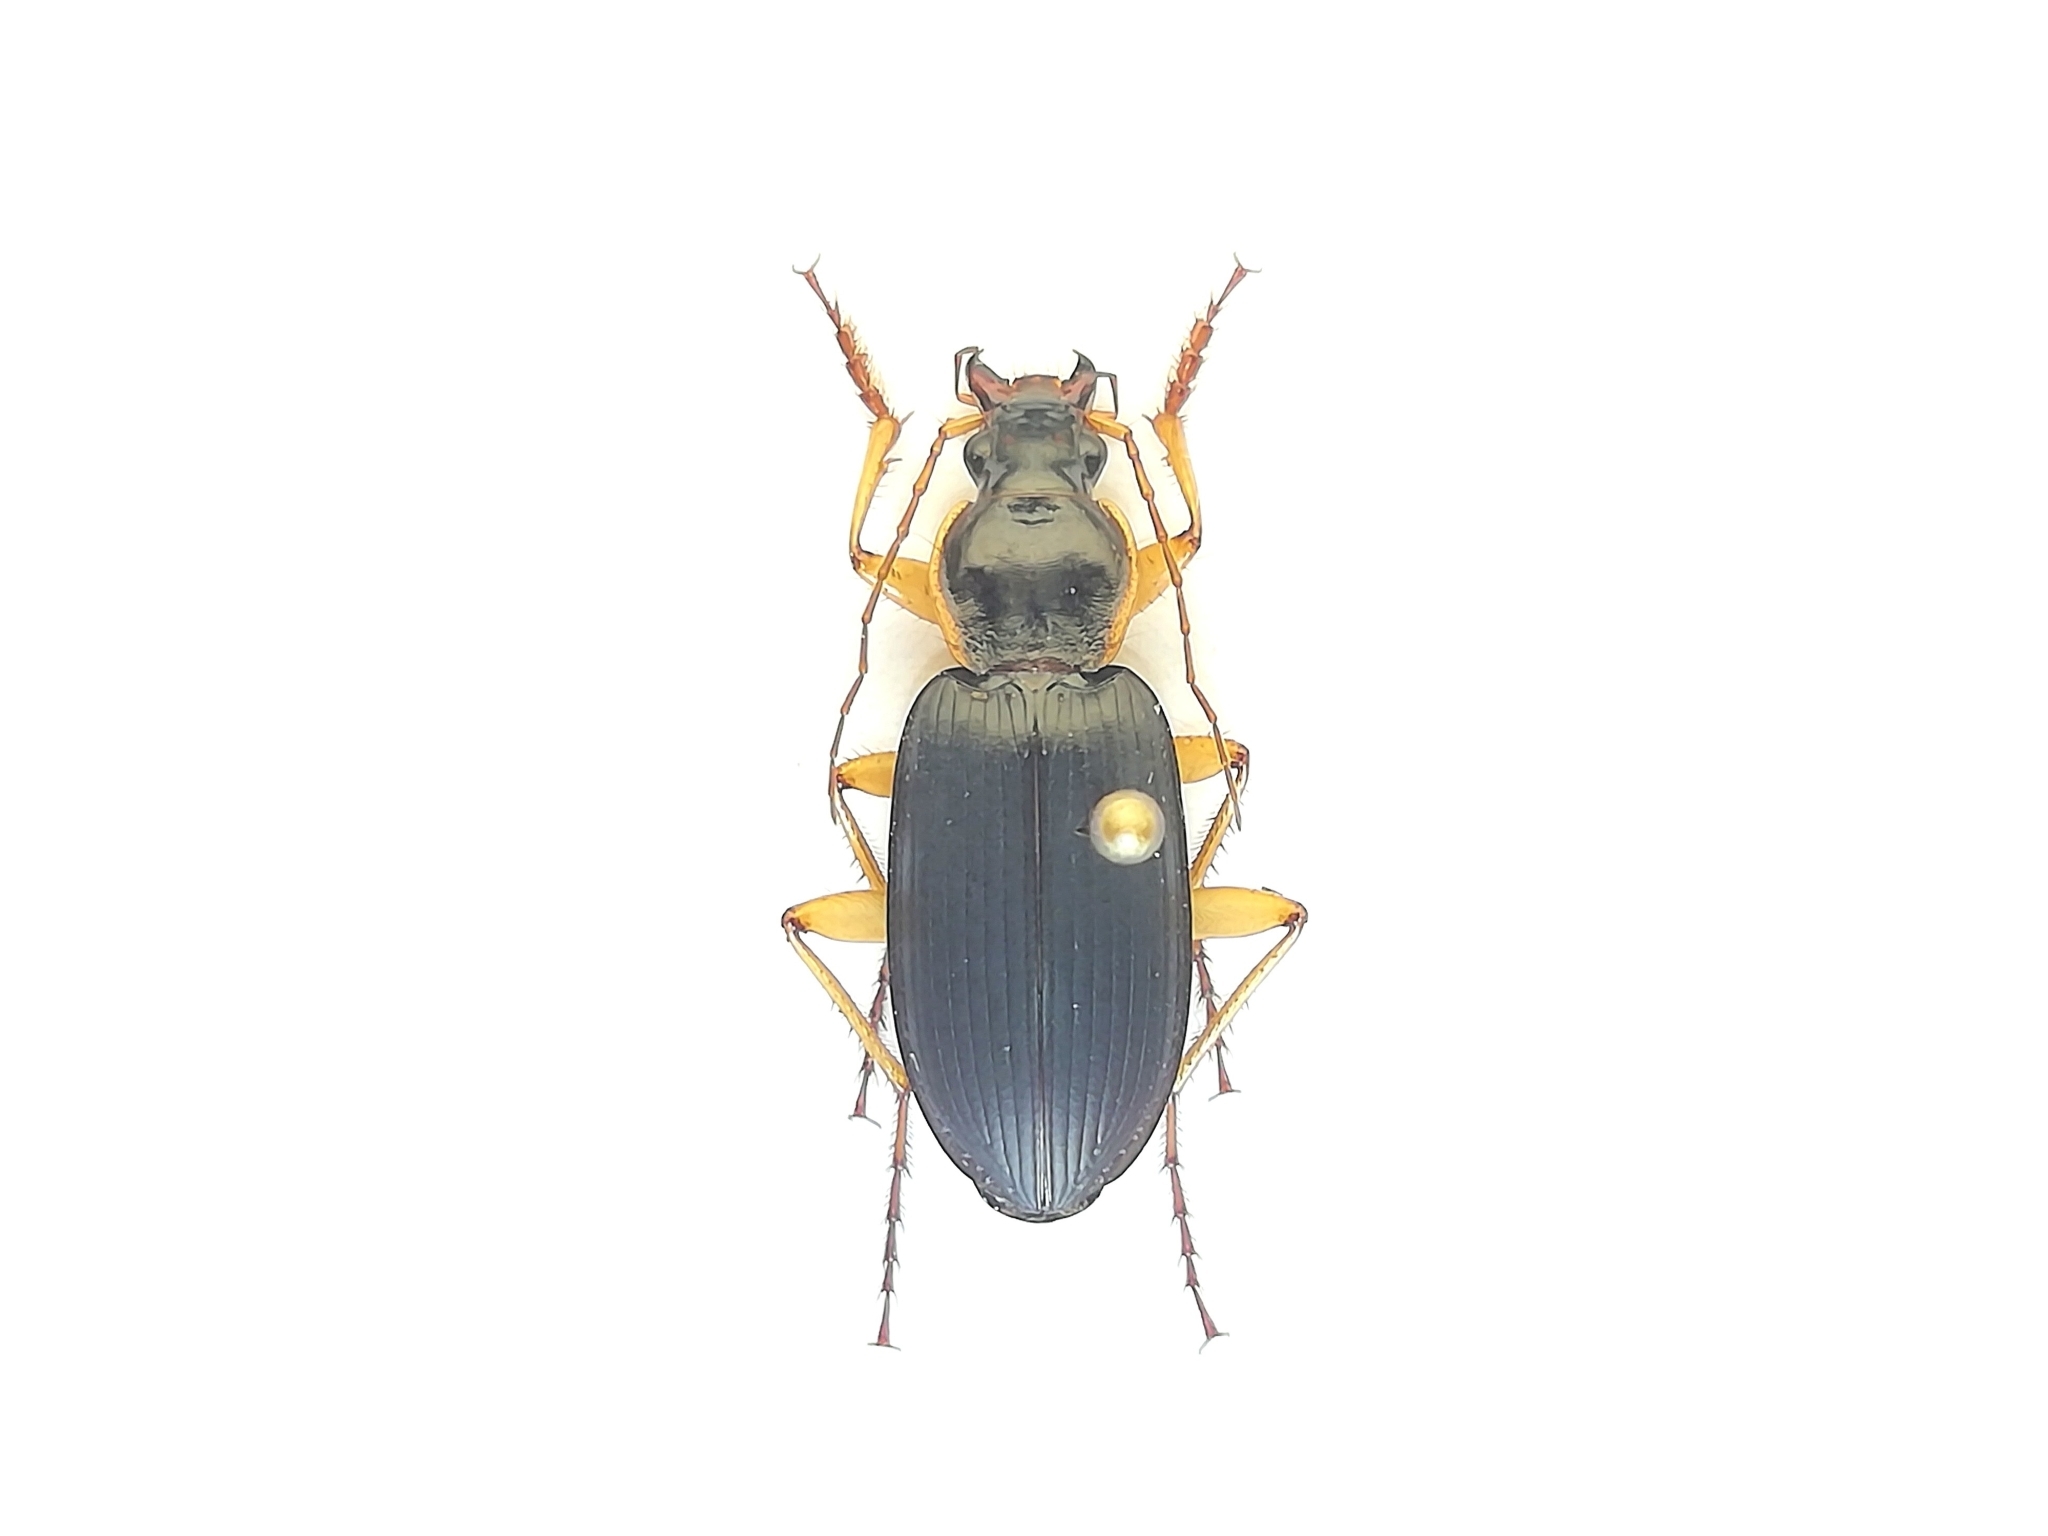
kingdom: Animalia
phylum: Arthropoda
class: Insecta
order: Coleoptera
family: Carabidae
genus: Dolichus
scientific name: Dolichus halensis
